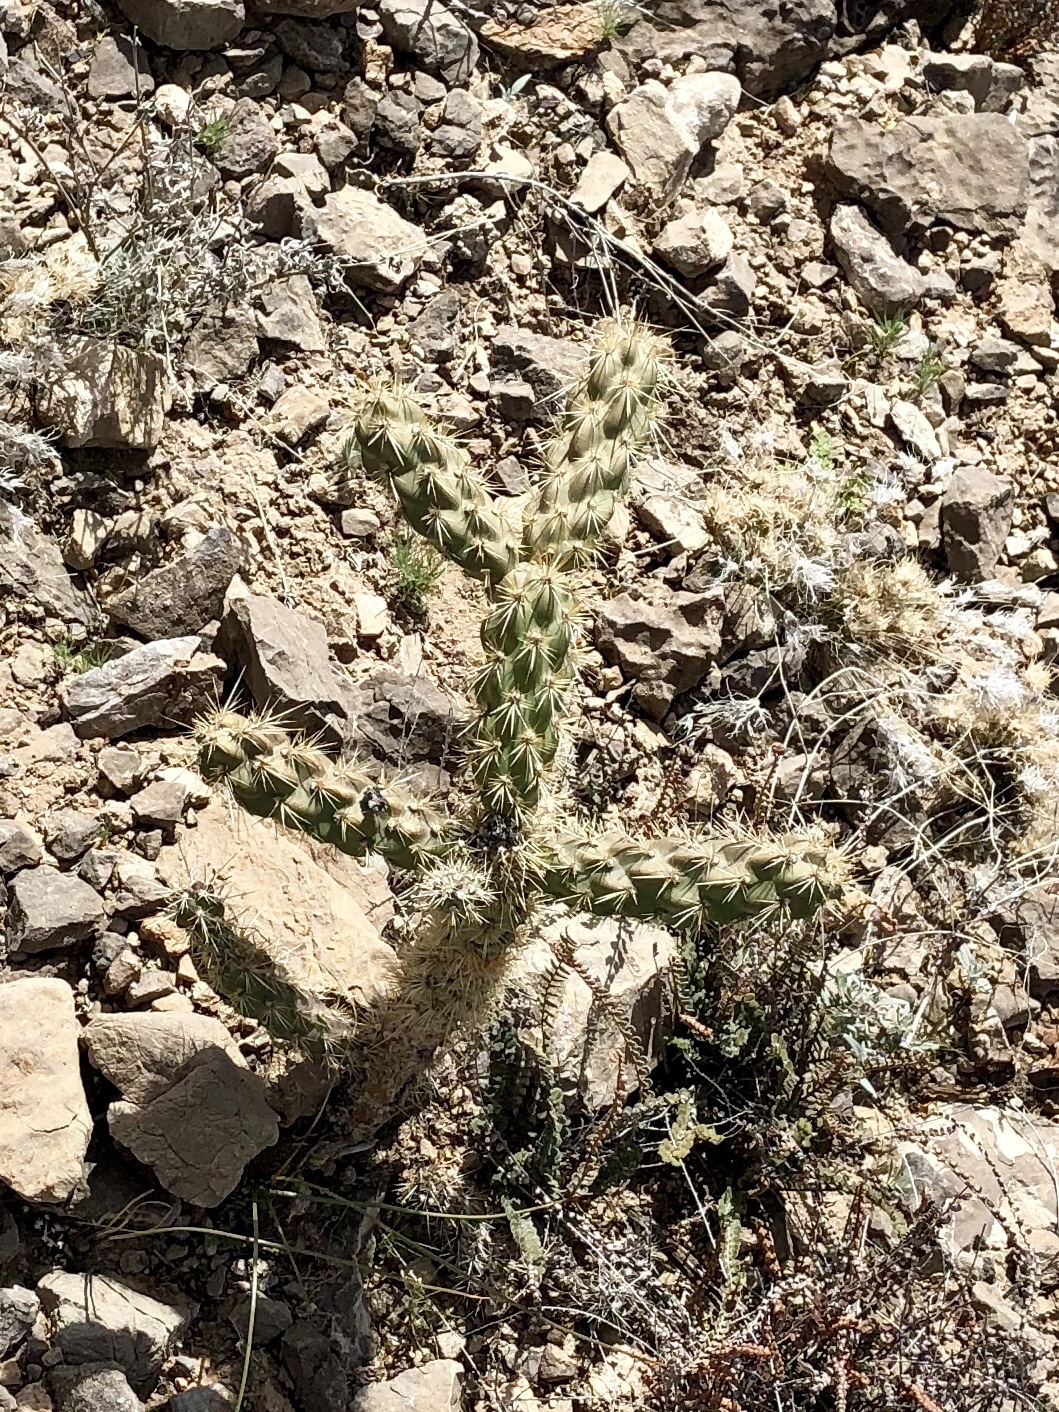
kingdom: Plantae
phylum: Tracheophyta
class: Magnoliopsida
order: Caryophyllales
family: Cactaceae
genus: Cylindropuntia
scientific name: Cylindropuntia imbricata
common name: Candelabrum cactus
